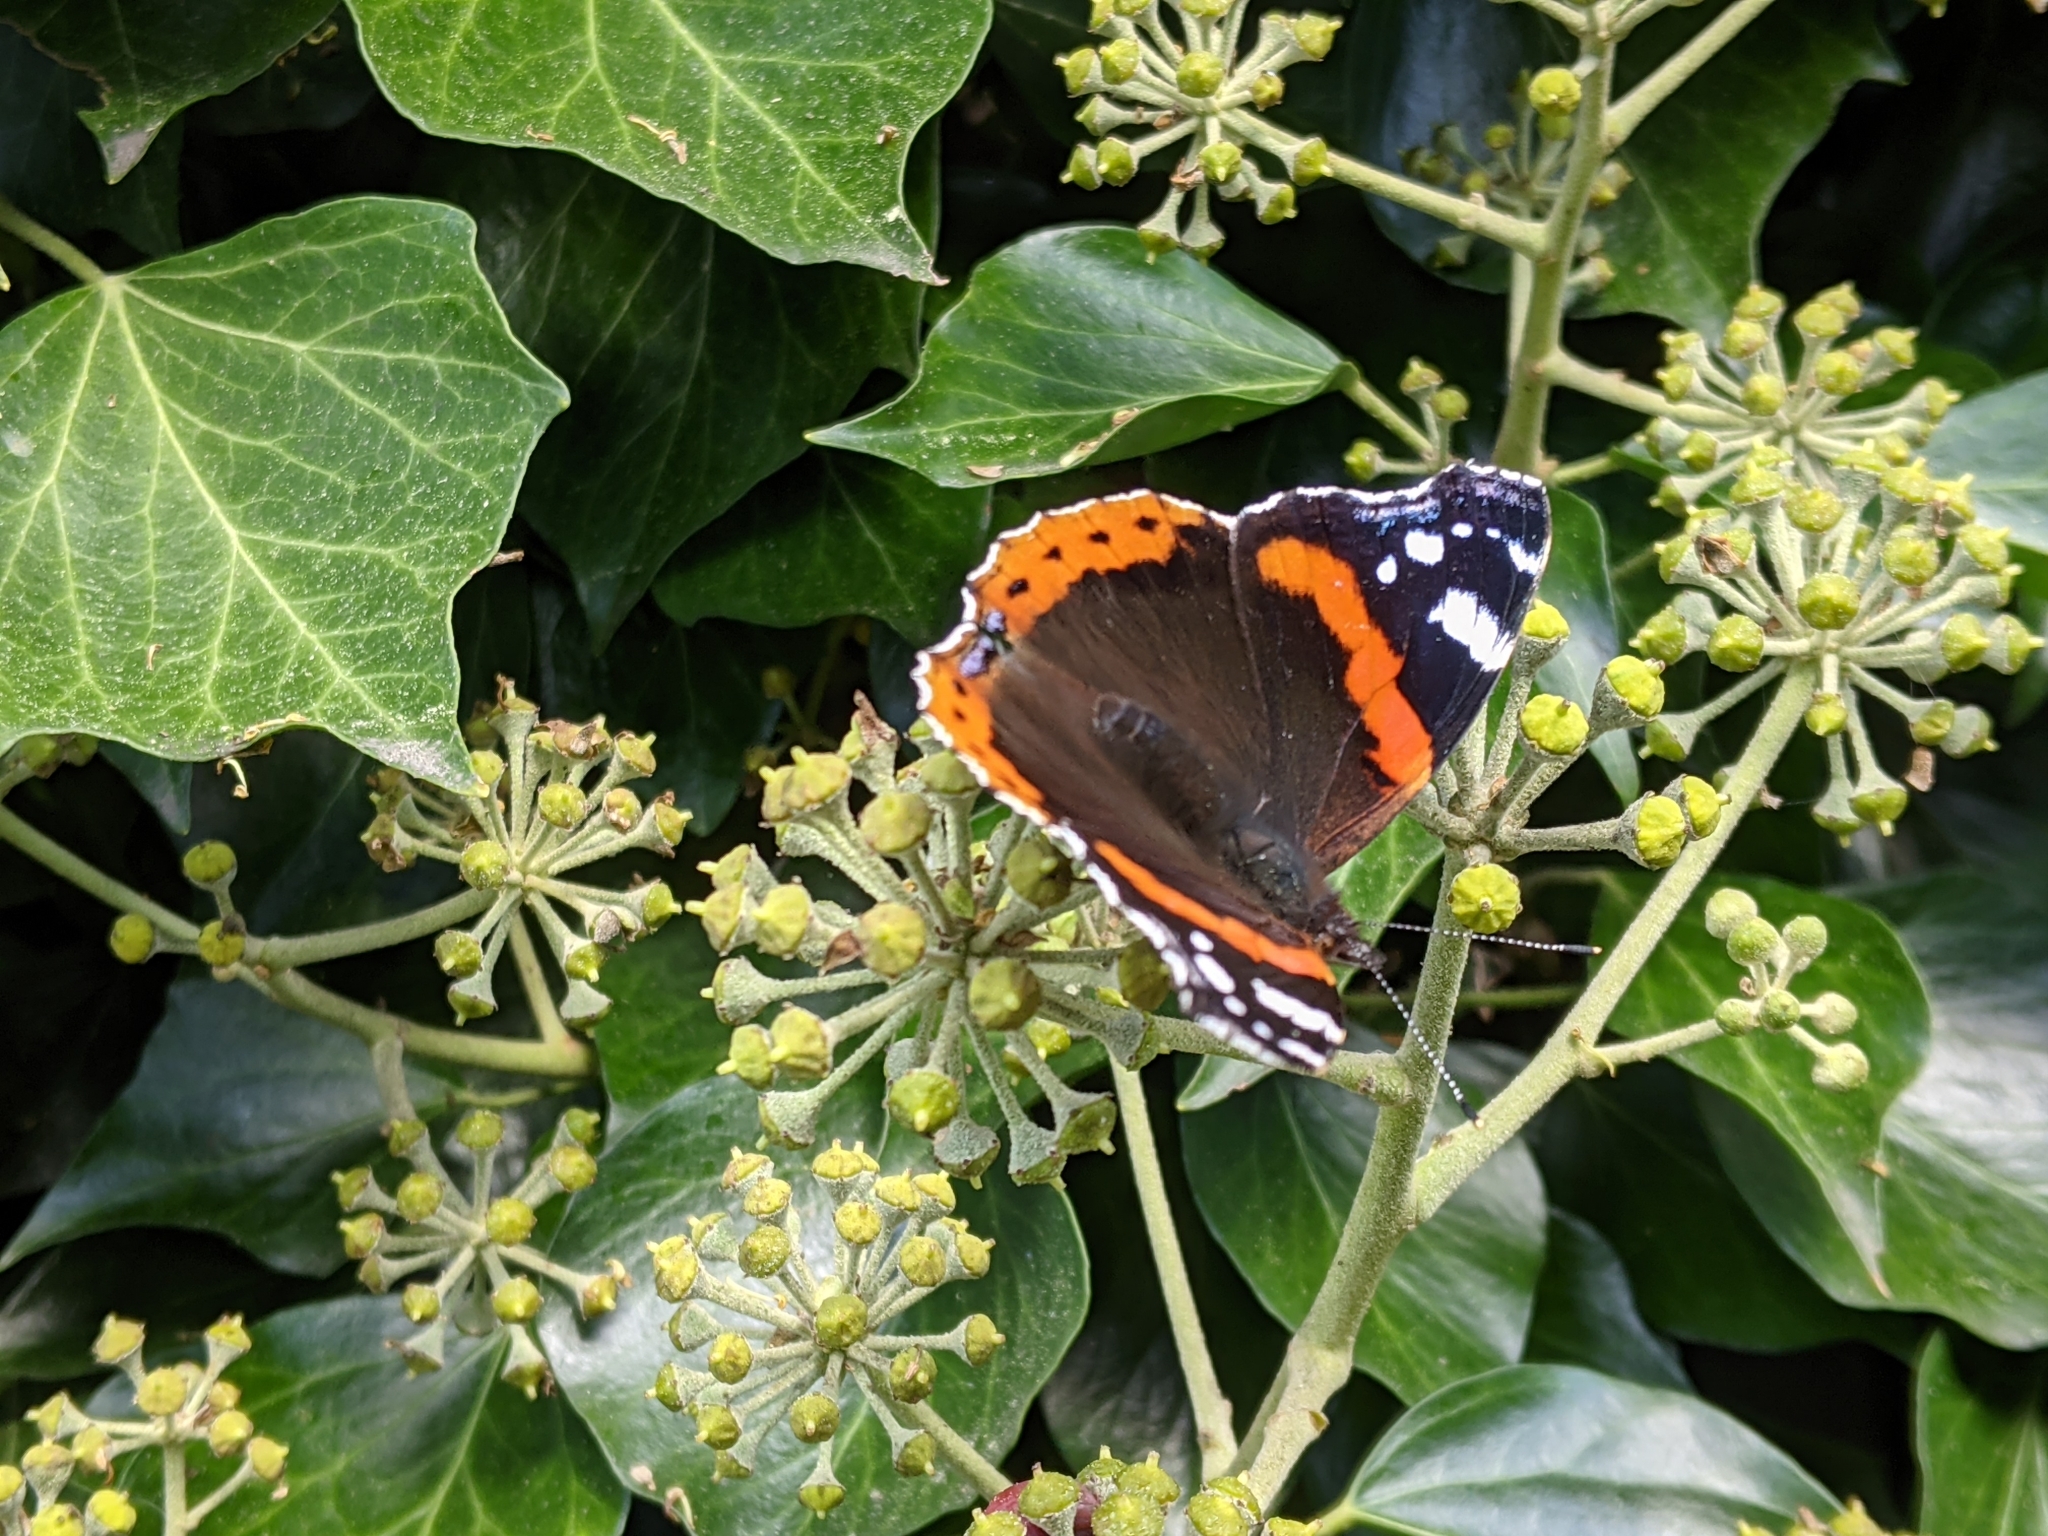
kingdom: Animalia
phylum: Arthropoda
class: Insecta
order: Lepidoptera
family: Nymphalidae
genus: Vanessa
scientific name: Vanessa atalanta
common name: Red admiral
